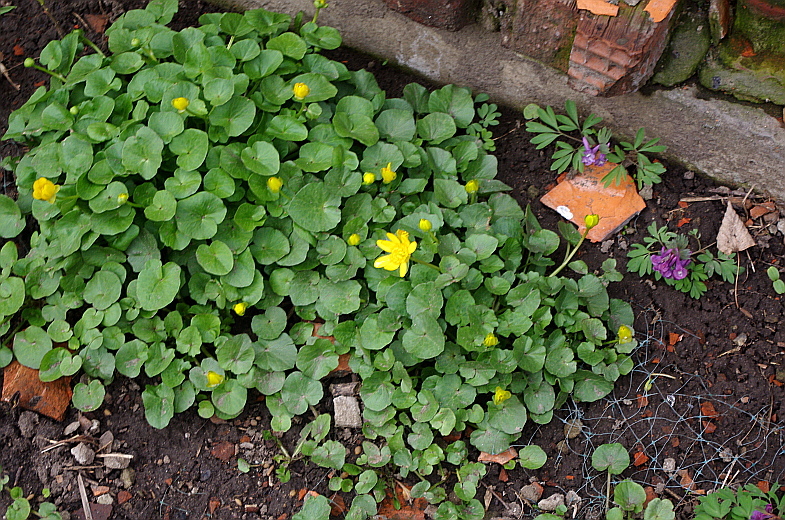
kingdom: Plantae
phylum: Tracheophyta
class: Magnoliopsida
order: Ranunculales
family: Ranunculaceae
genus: Ficaria
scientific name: Ficaria verna
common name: Lesser celandine
